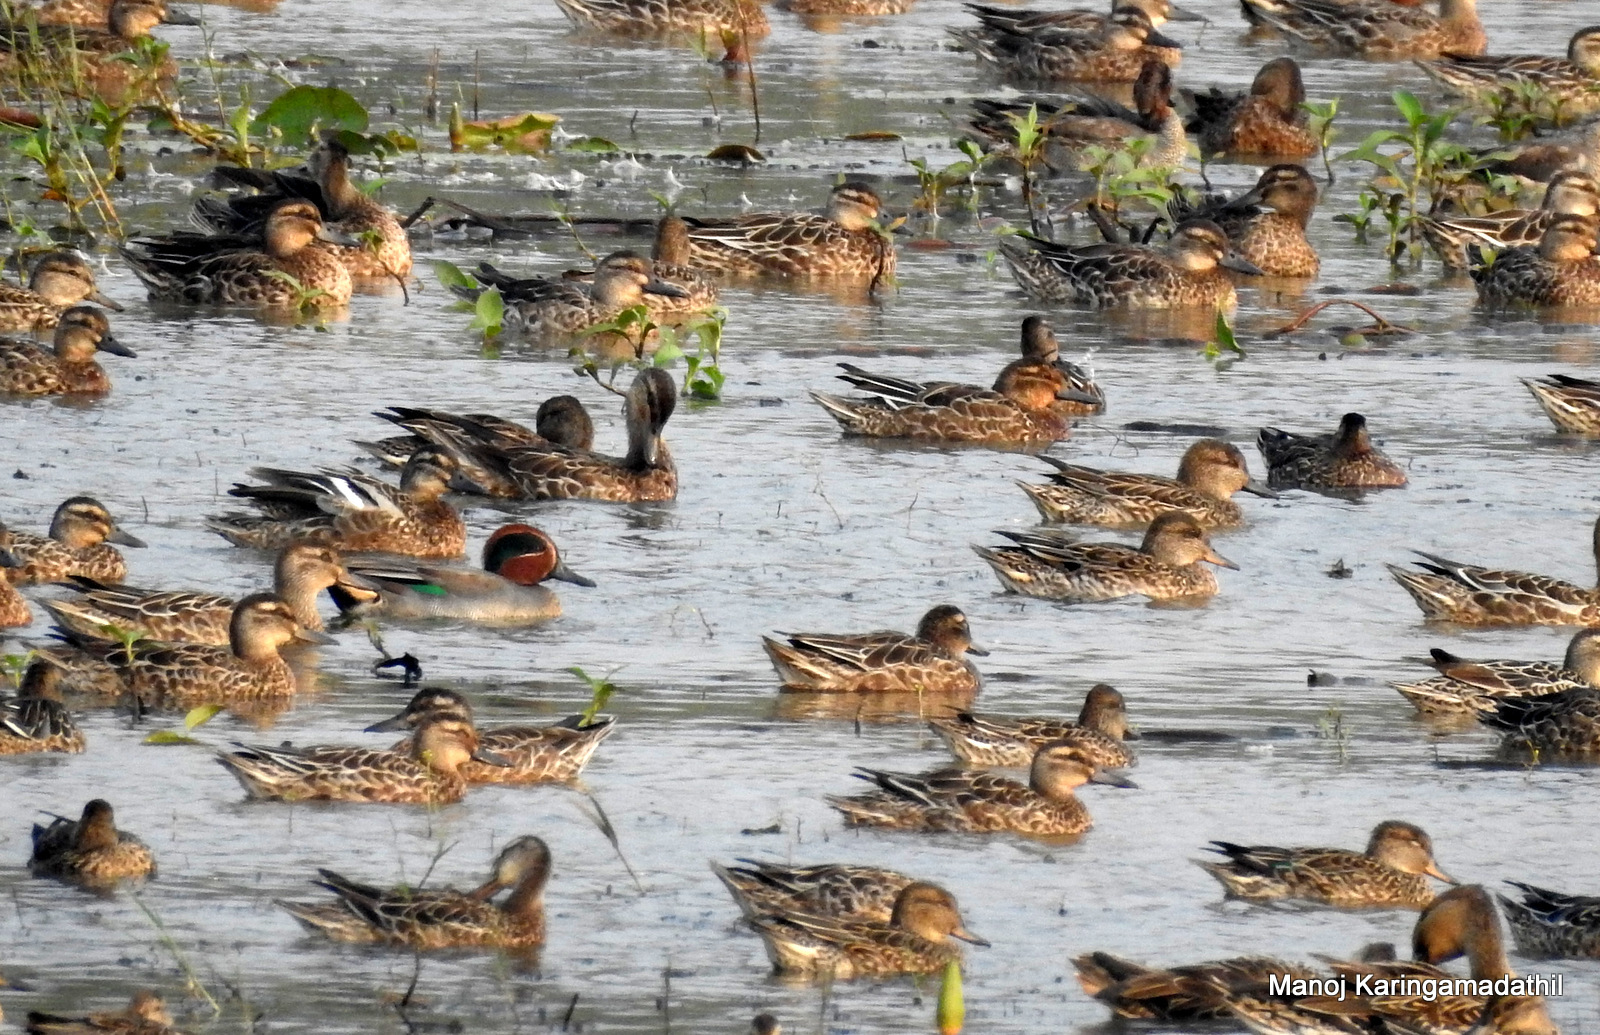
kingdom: Animalia
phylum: Chordata
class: Aves
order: Anseriformes
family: Anatidae
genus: Anas
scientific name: Anas crecca
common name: Eurasian teal
